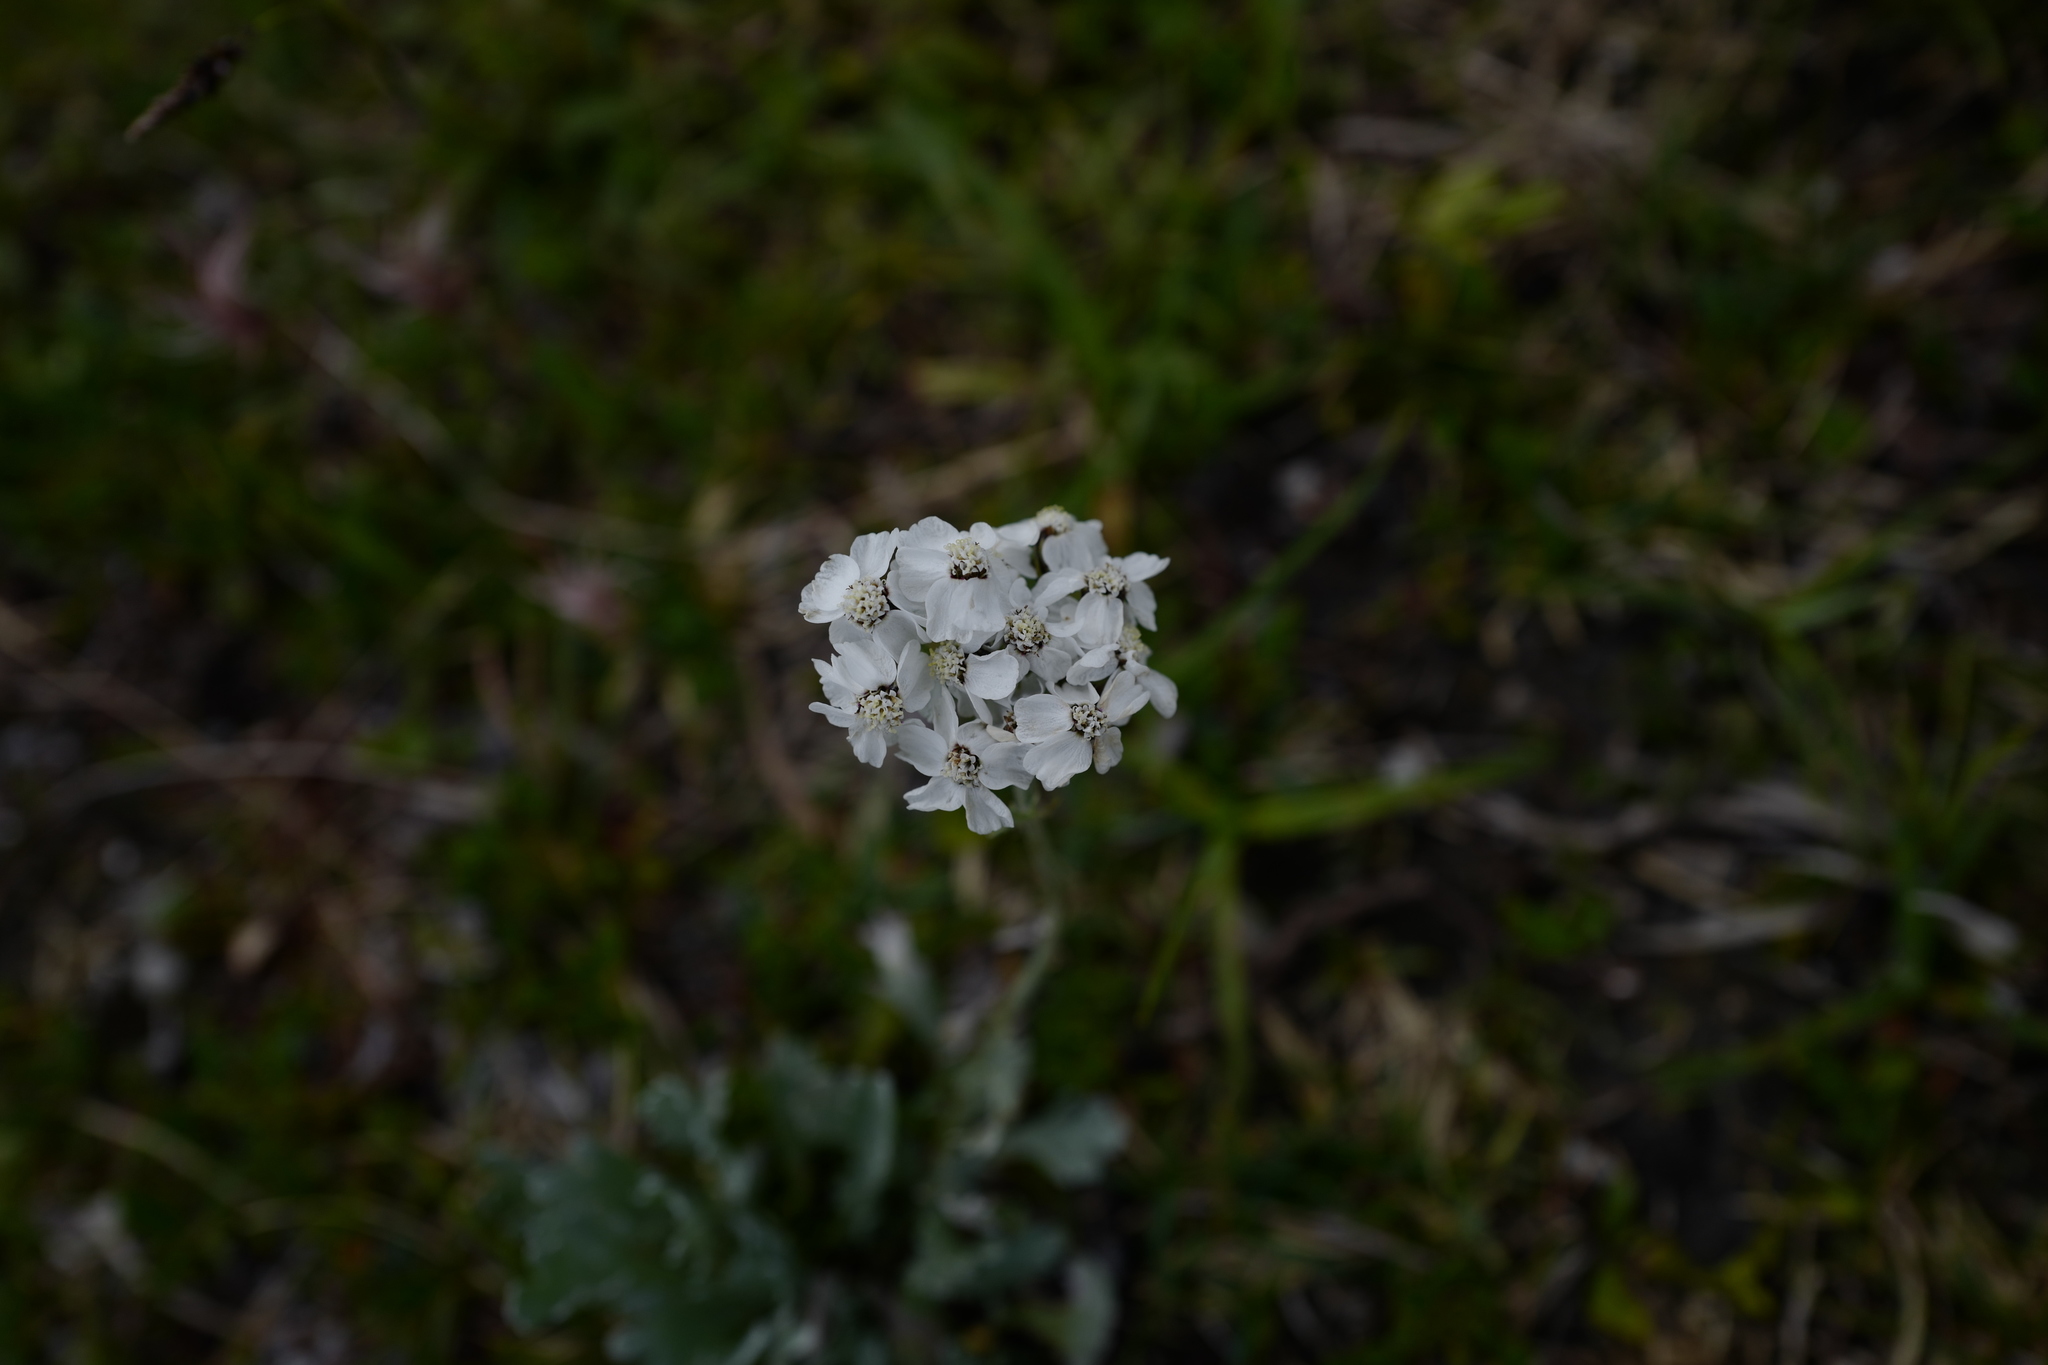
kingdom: Plantae
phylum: Tracheophyta
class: Magnoliopsida
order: Asterales
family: Asteraceae
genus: Achillea
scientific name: Achillea clavennae
